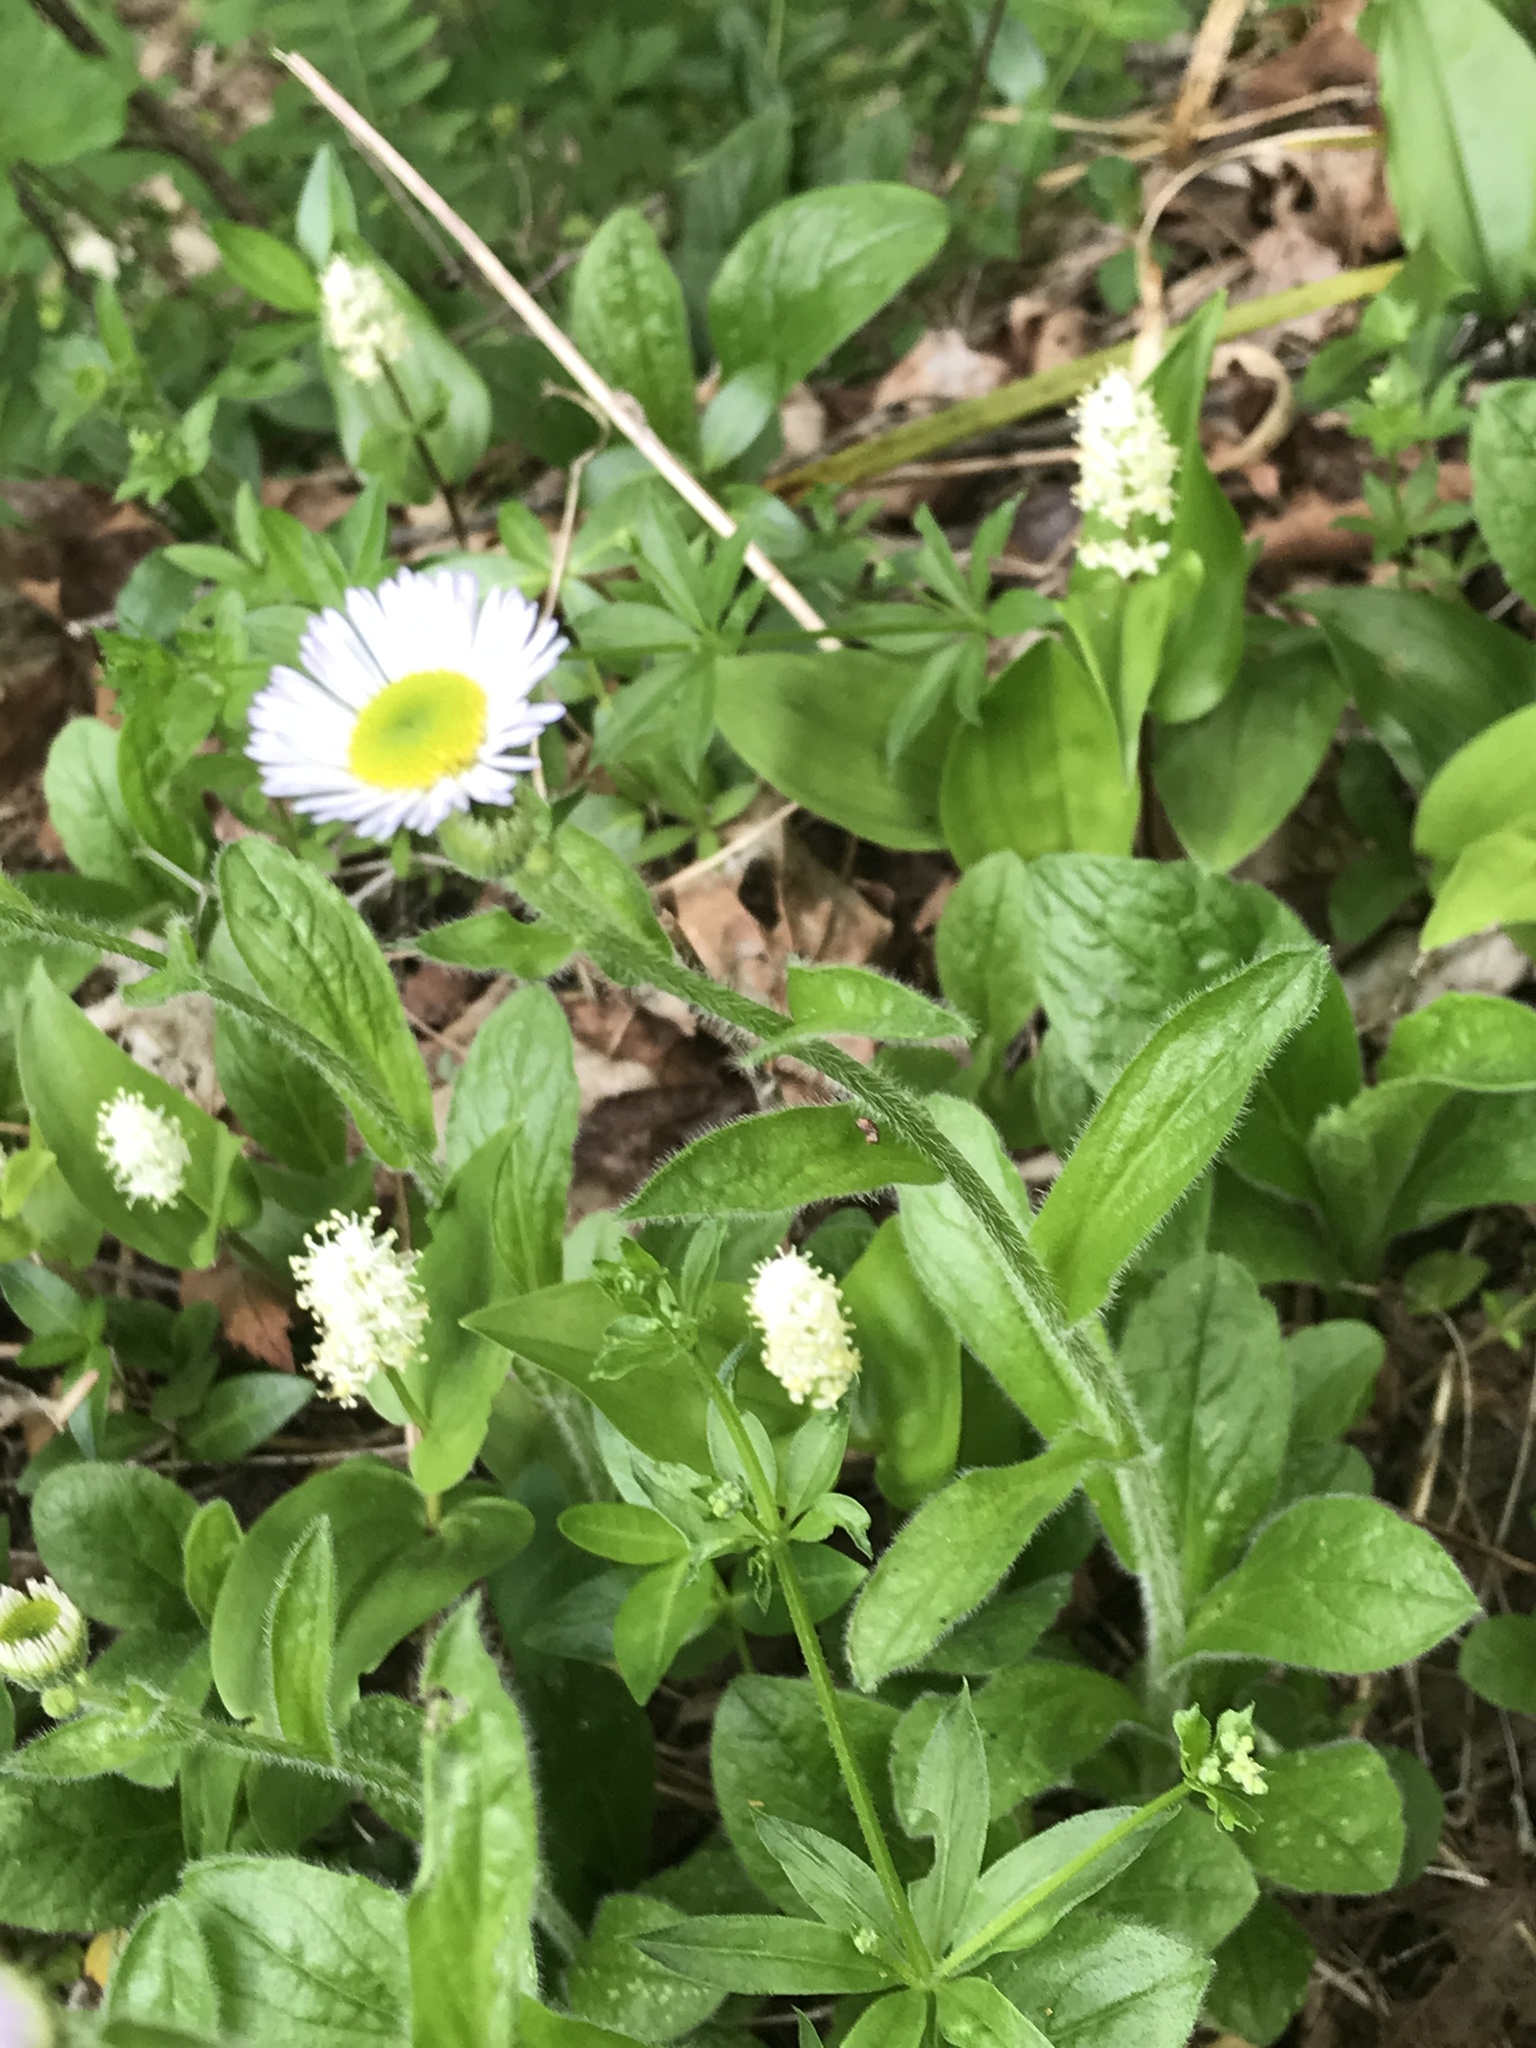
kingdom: Plantae
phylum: Tracheophyta
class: Magnoliopsida
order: Asterales
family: Asteraceae
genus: Erigeron
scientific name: Erigeron pulchellus
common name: Hairy fleabane
